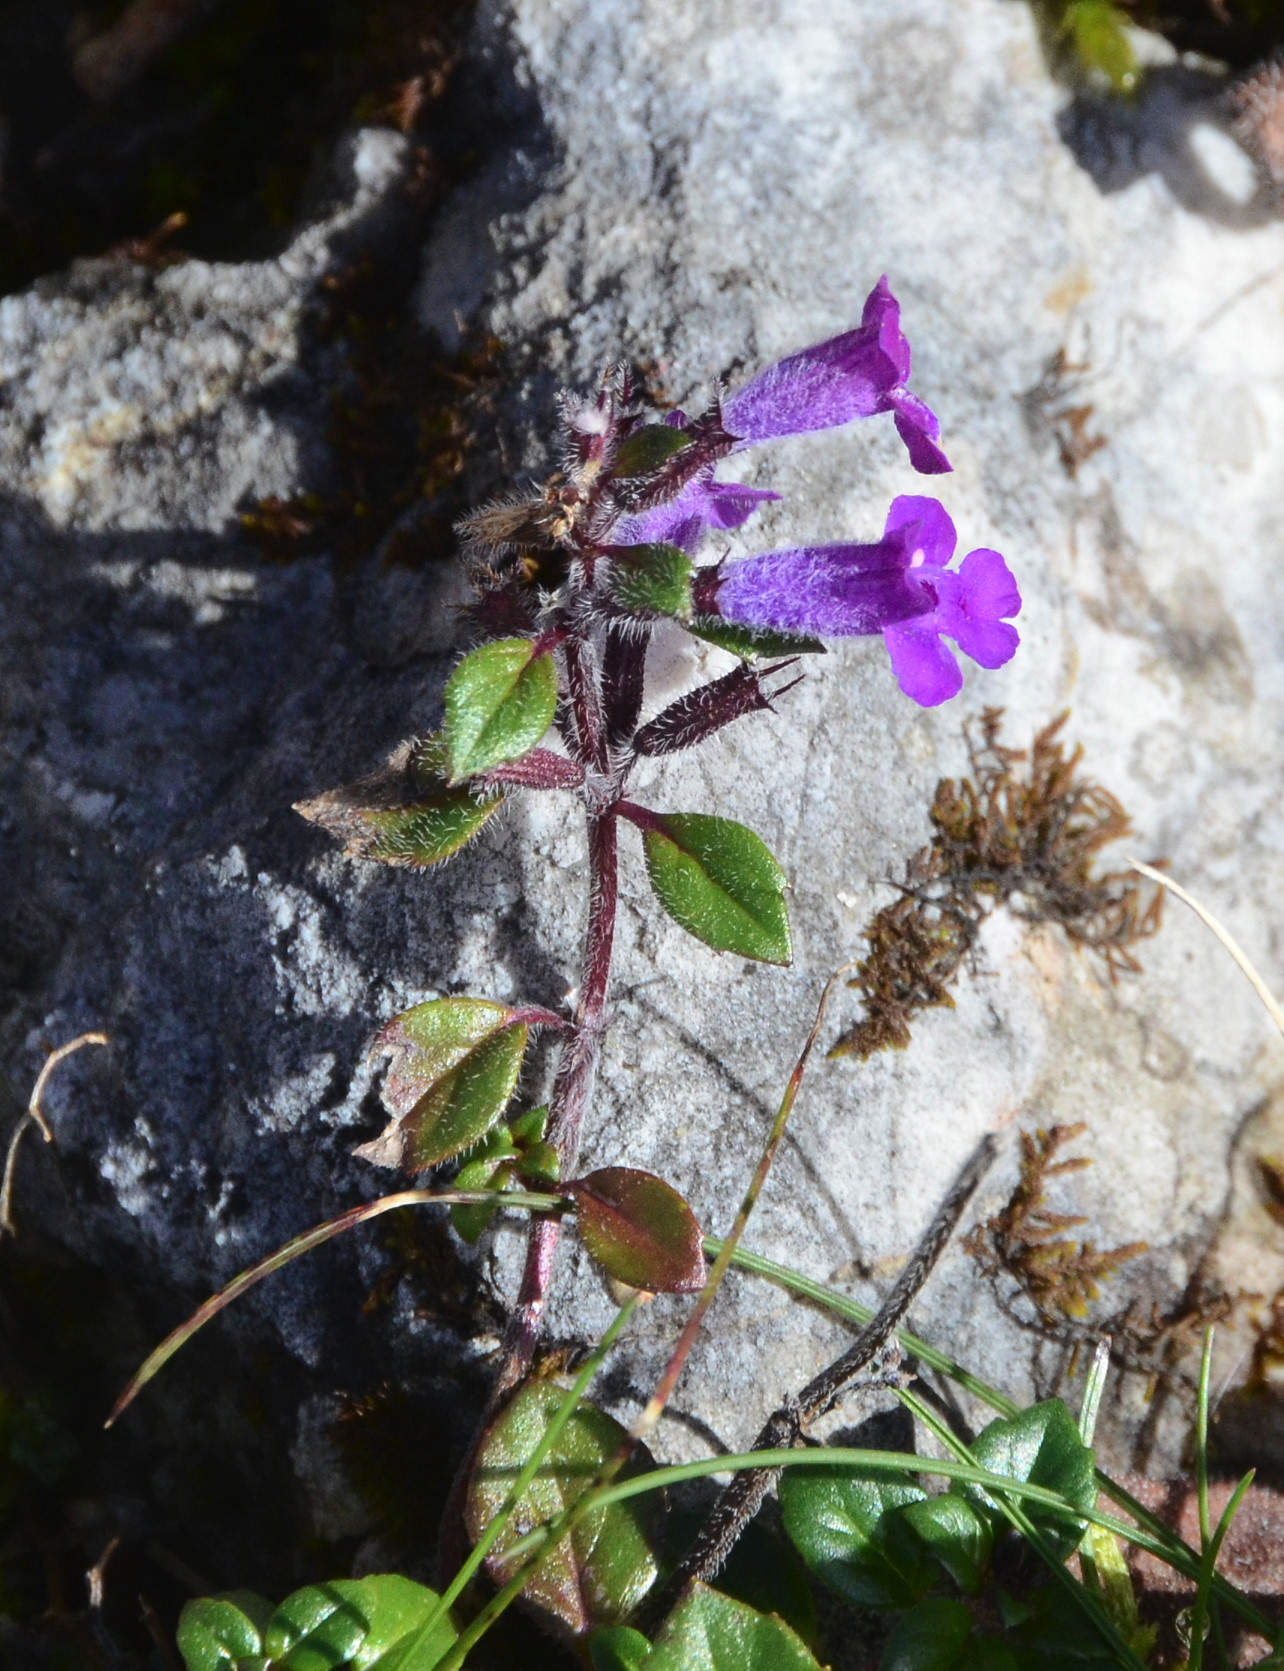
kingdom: Plantae
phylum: Tracheophyta
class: Magnoliopsida
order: Lamiales
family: Lamiaceae
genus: Clinopodium
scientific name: Clinopodium alpinum
